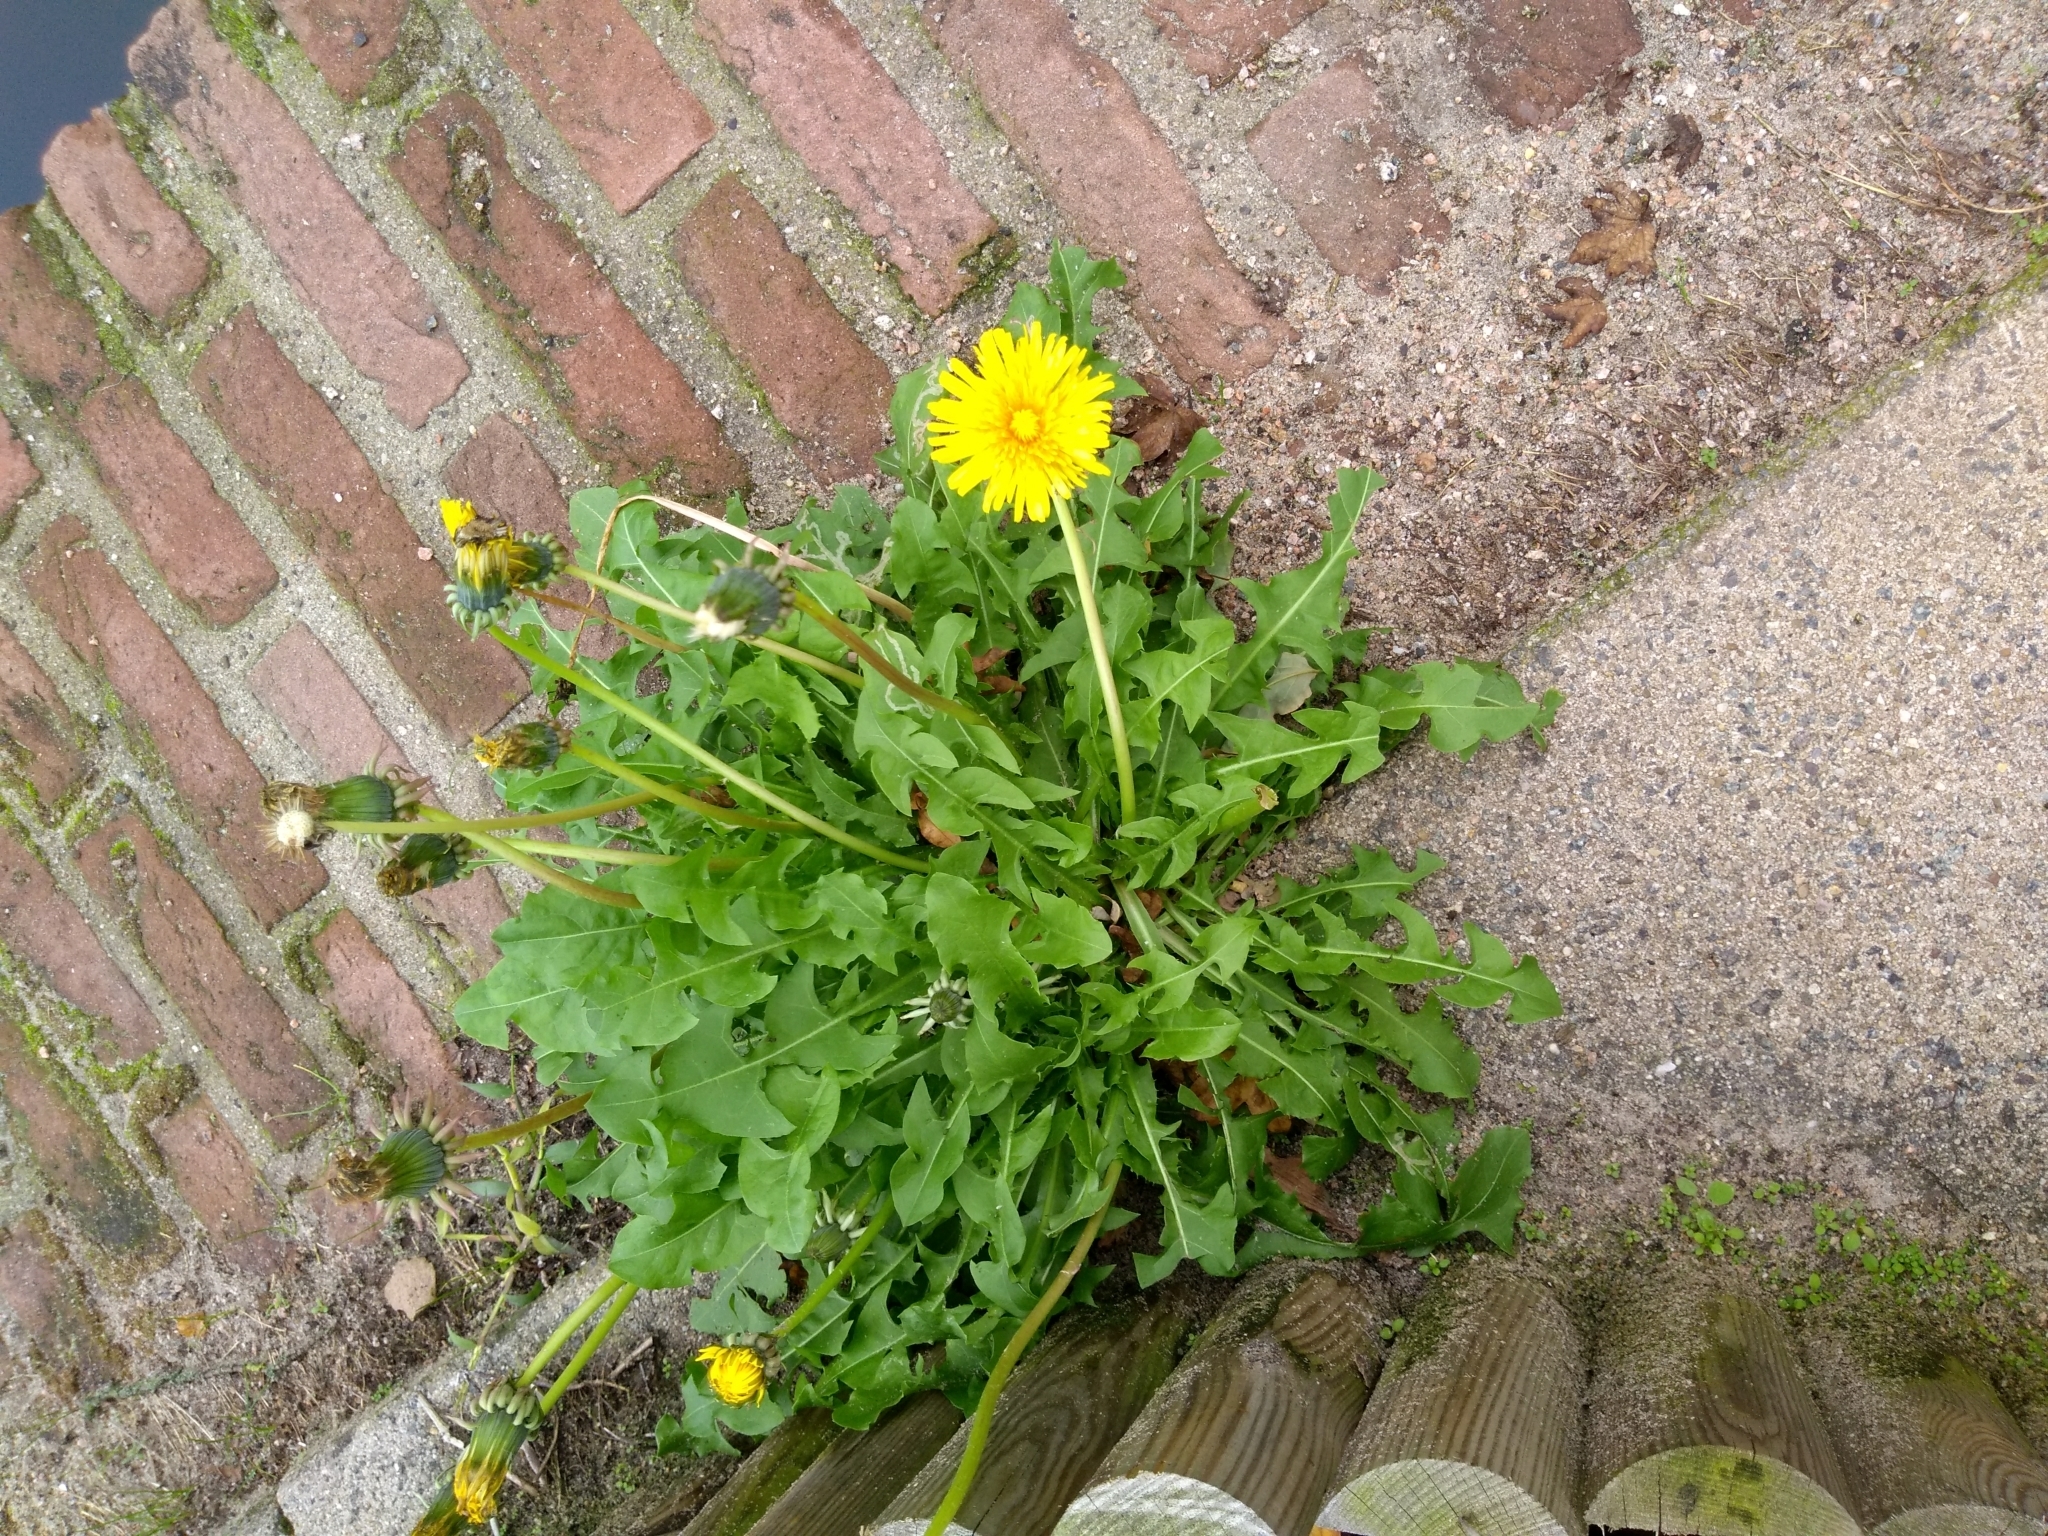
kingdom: Plantae
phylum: Tracheophyta
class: Magnoliopsida
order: Asterales
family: Asteraceae
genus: Taraxacum
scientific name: Taraxacum officinale
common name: Common dandelion
